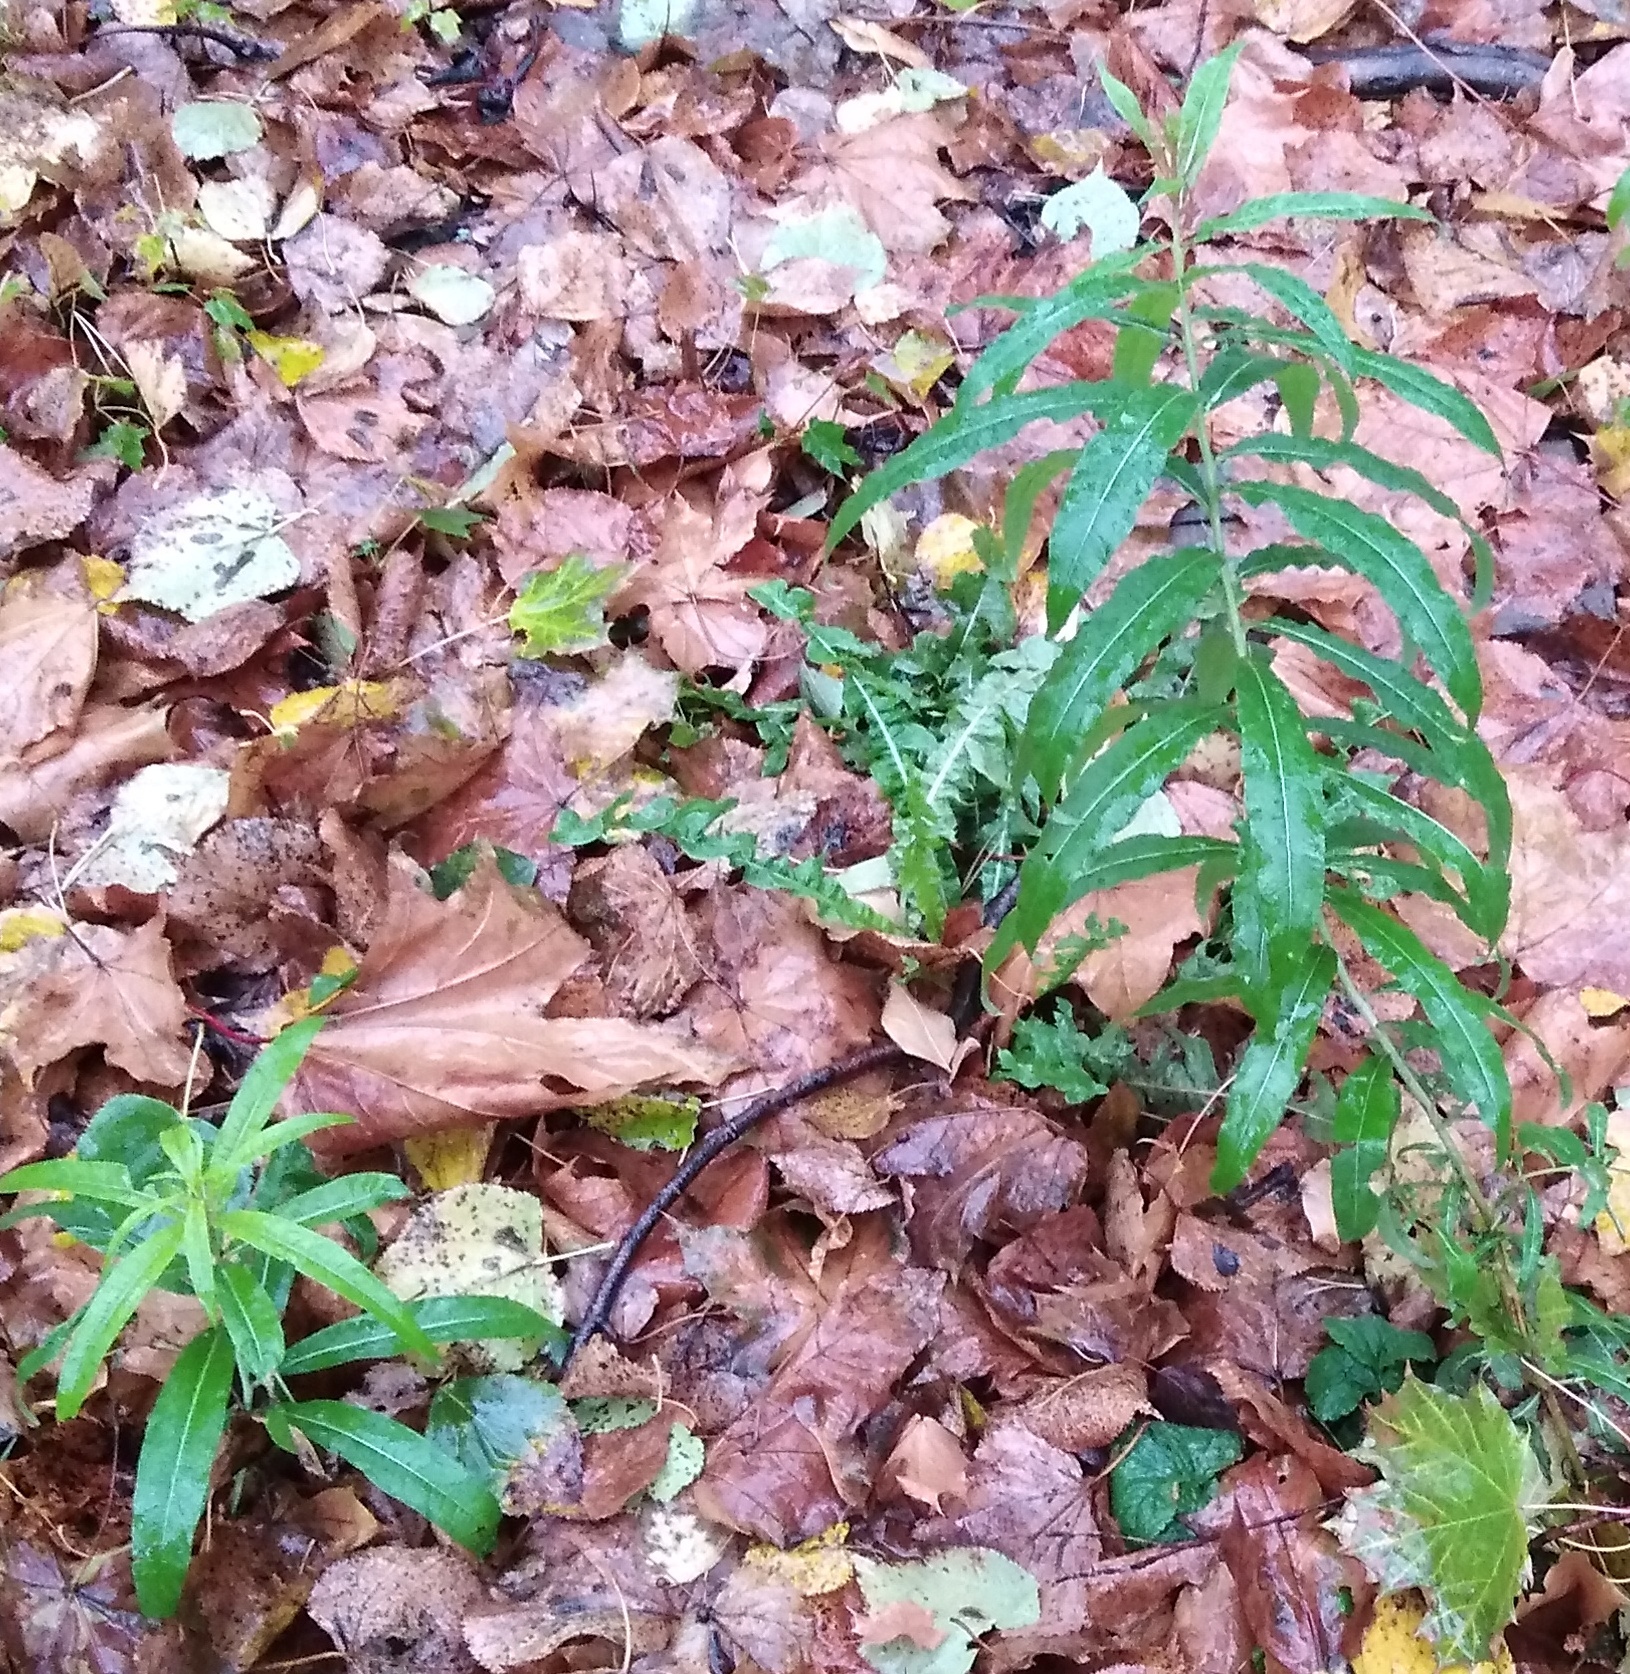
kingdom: Plantae
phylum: Tracheophyta
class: Magnoliopsida
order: Myrtales
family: Onagraceae
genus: Chamaenerion
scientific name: Chamaenerion angustifolium
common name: Fireweed
